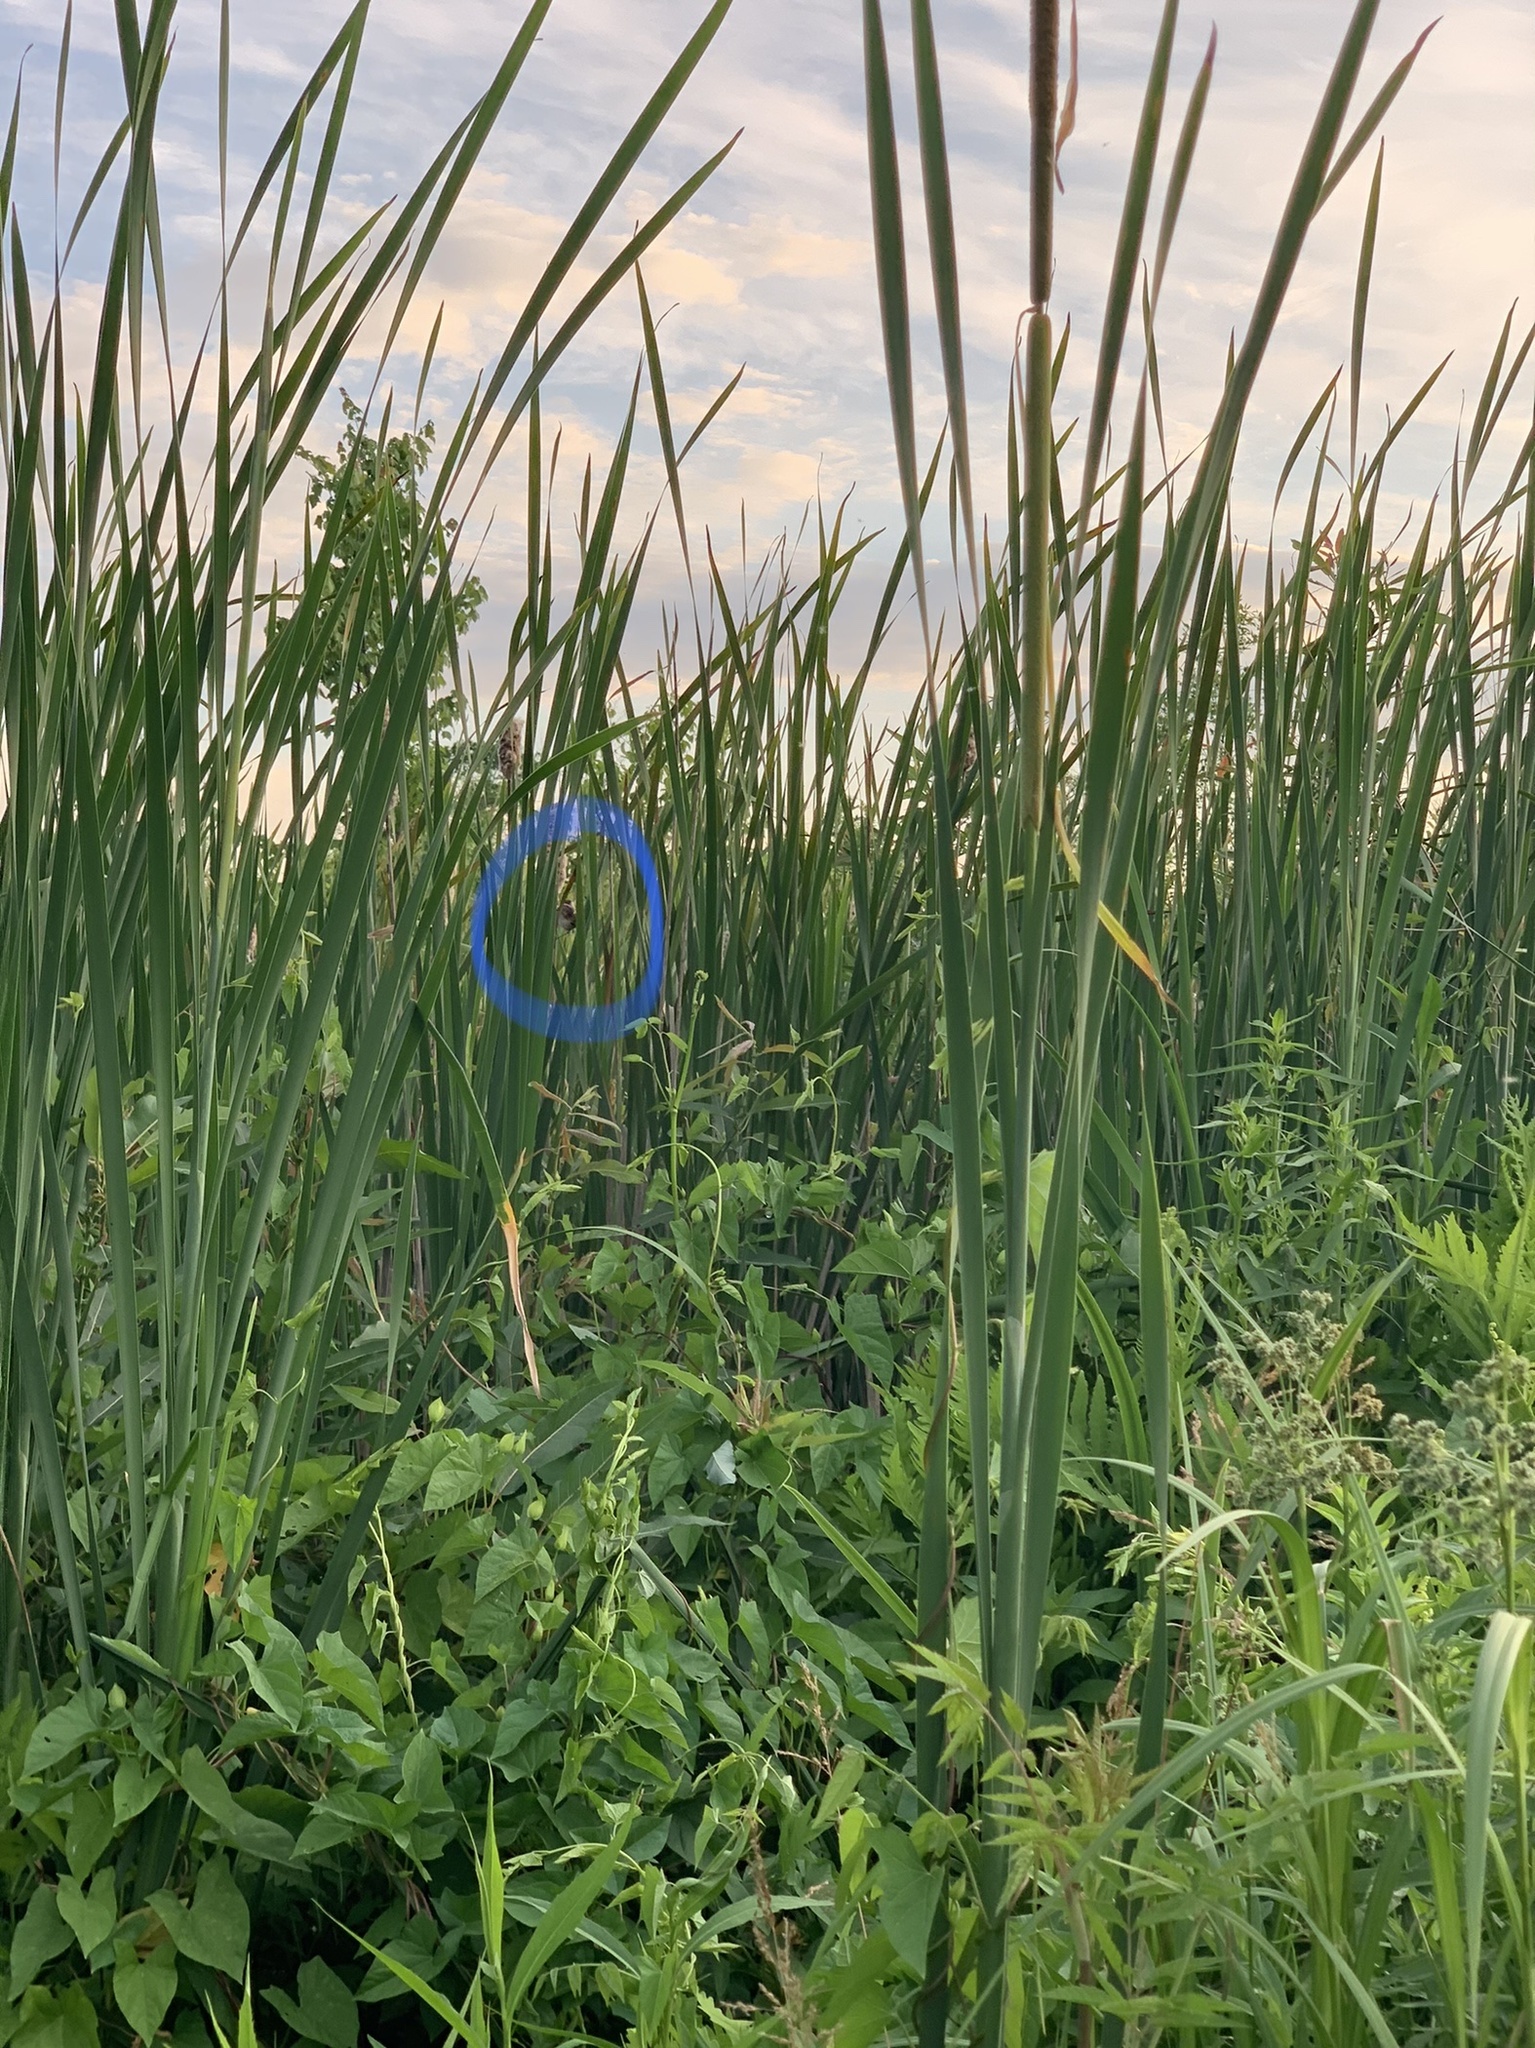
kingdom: Animalia
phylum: Chordata
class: Aves
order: Passeriformes
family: Troglodytidae
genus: Cistothorus
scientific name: Cistothorus palustris
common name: Marsh wren
